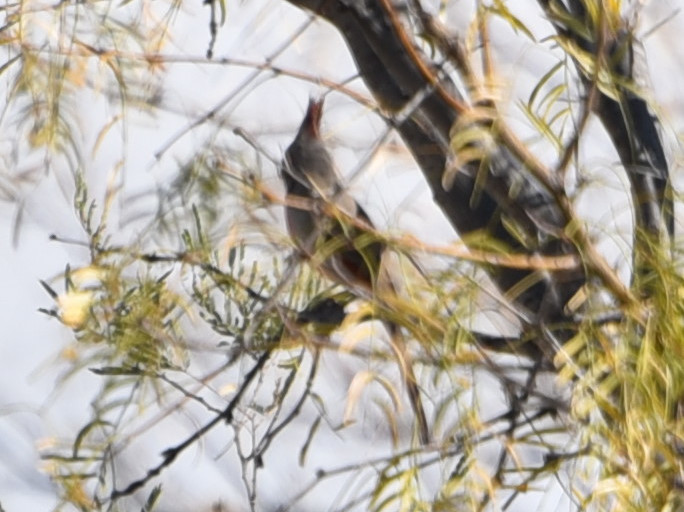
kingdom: Animalia
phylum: Chordata
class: Aves
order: Passeriformes
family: Cardinalidae
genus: Cardinalis
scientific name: Cardinalis sinuatus
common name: Pyrrhuloxia
